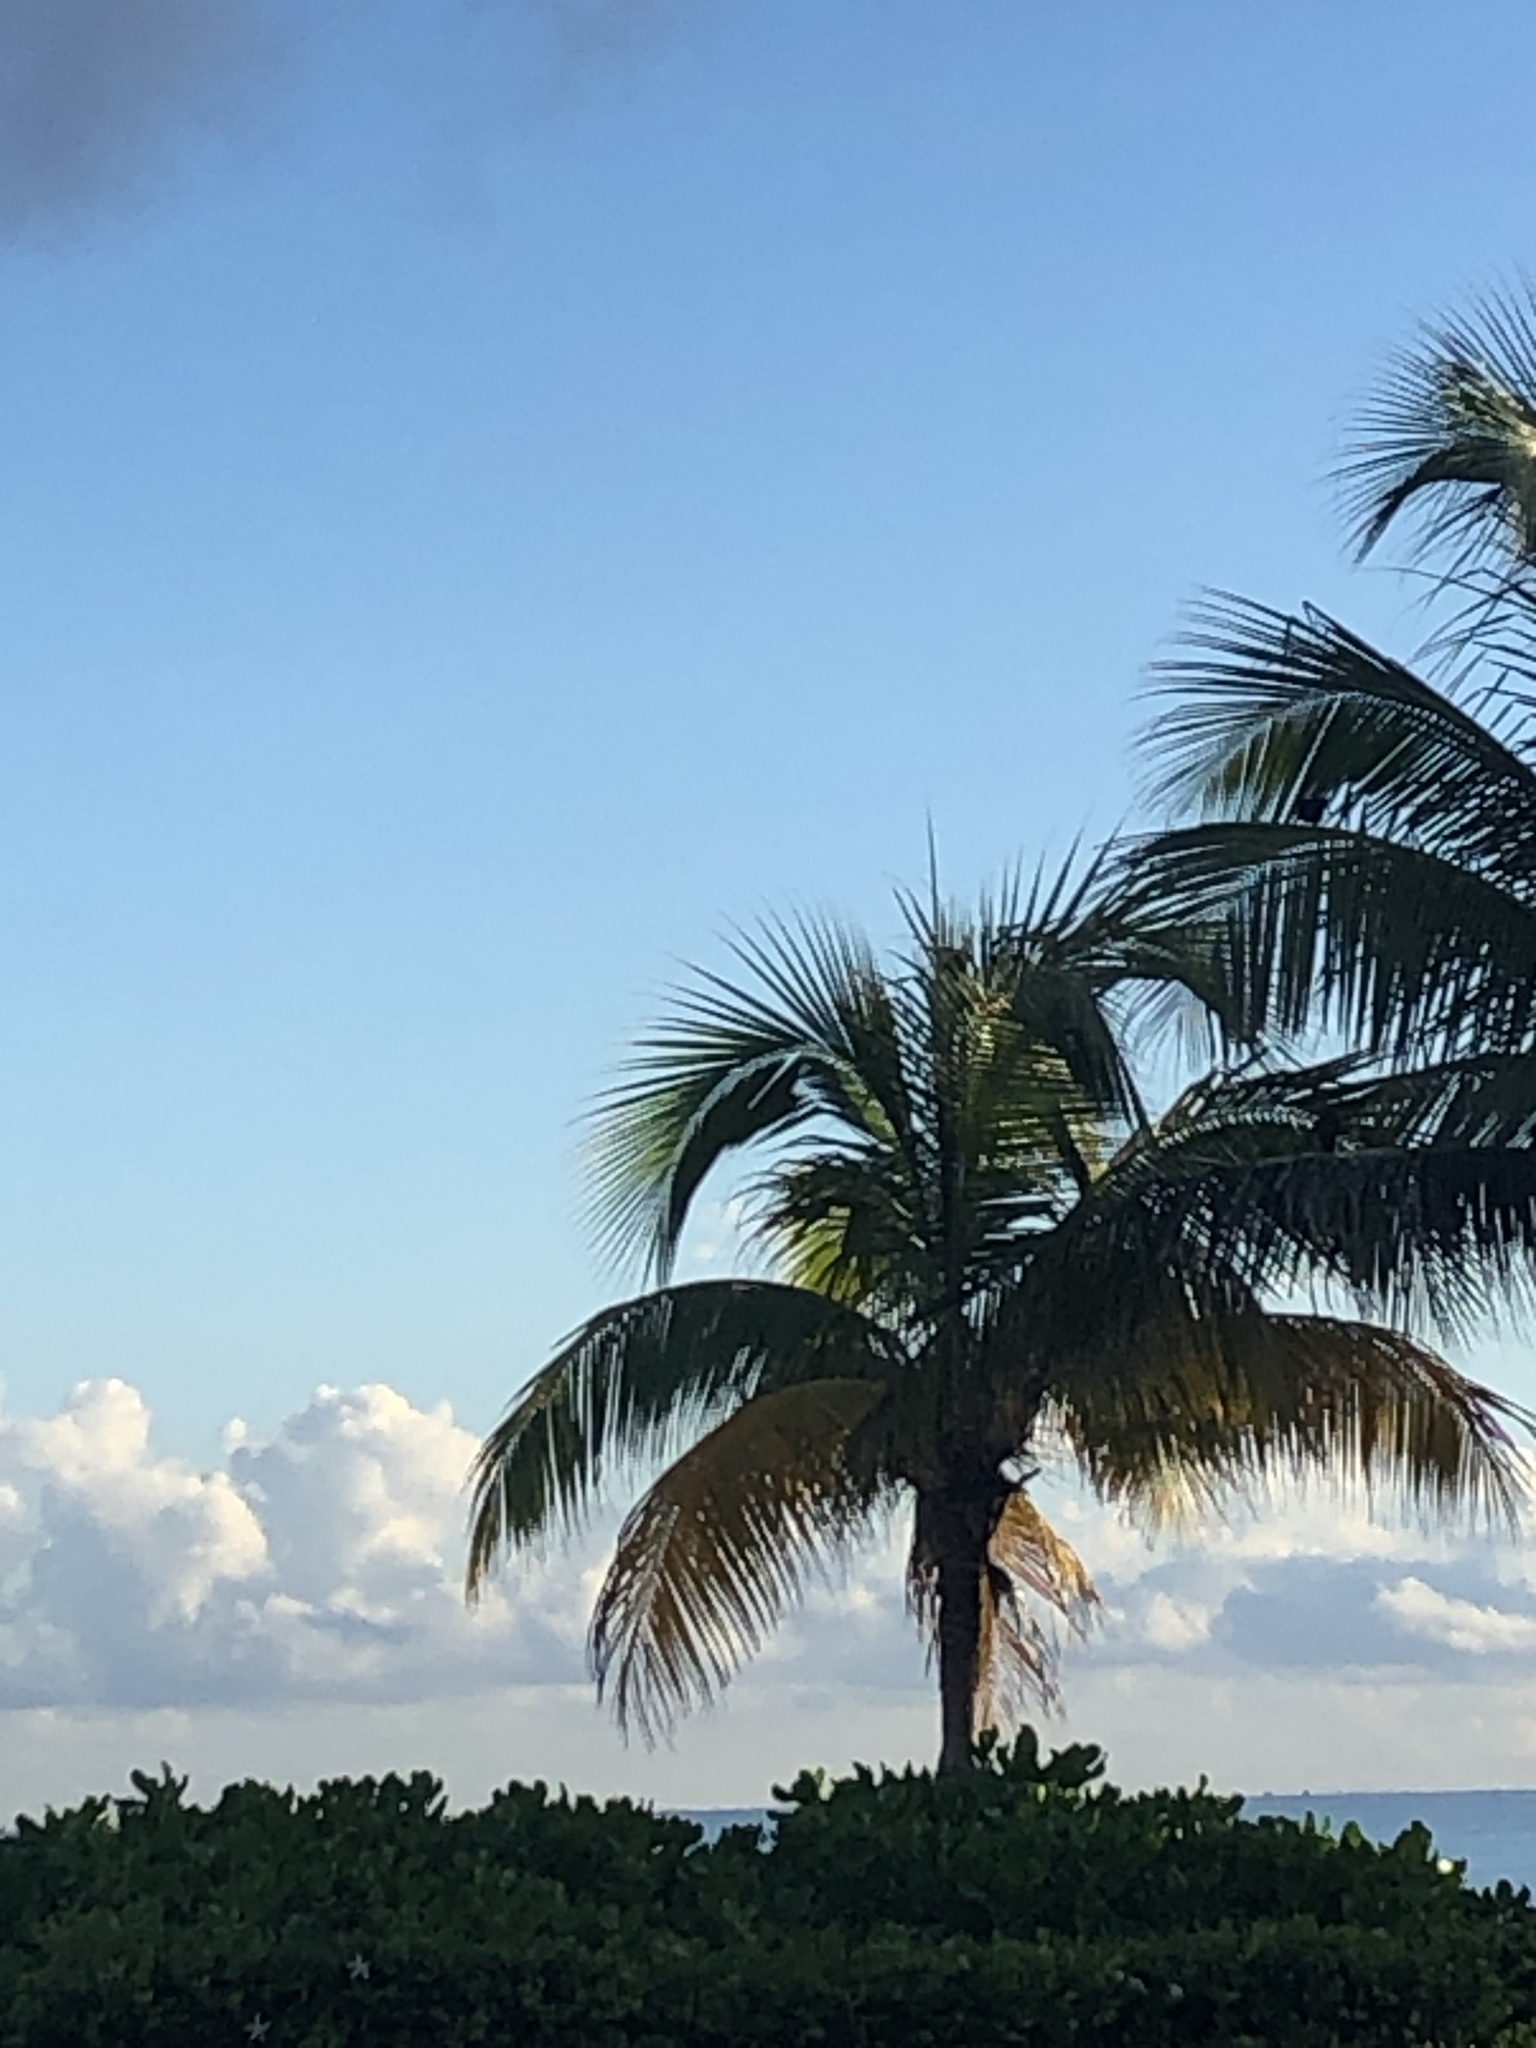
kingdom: Plantae
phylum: Tracheophyta
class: Liliopsida
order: Arecales
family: Arecaceae
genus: Cocos
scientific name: Cocos nucifera
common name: Coconut palm
